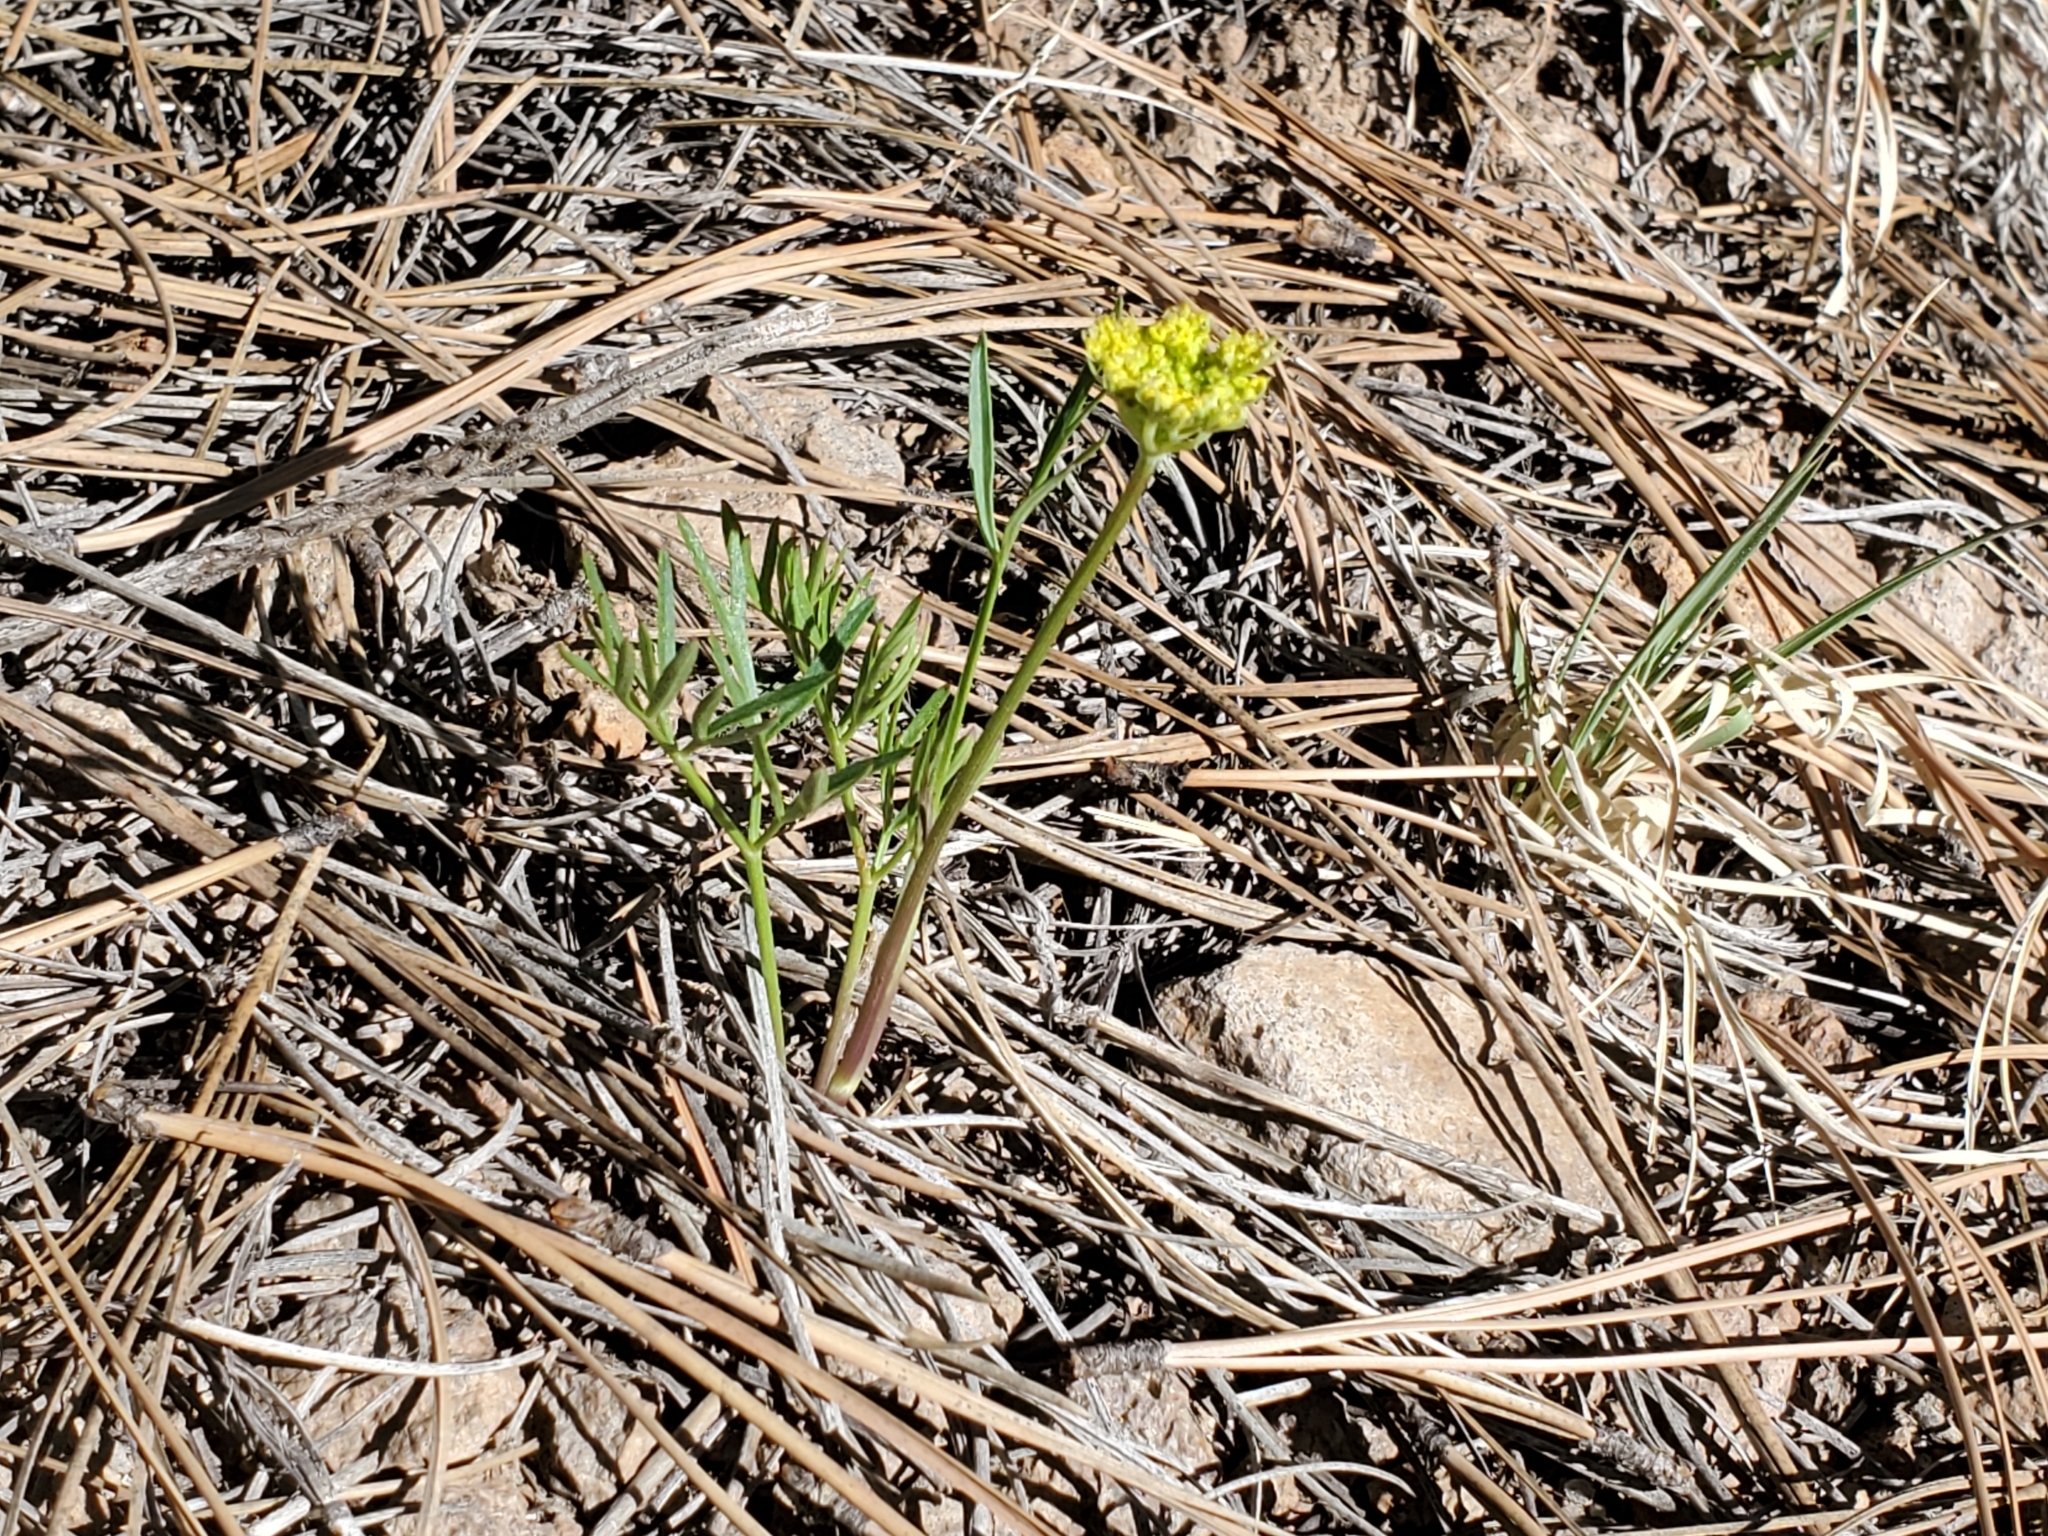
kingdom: Plantae
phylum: Tracheophyta
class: Magnoliopsida
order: Apiales
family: Apiaceae
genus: Cymopterus
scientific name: Cymopterus lemmonii
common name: Lemmon's spring-parsley
